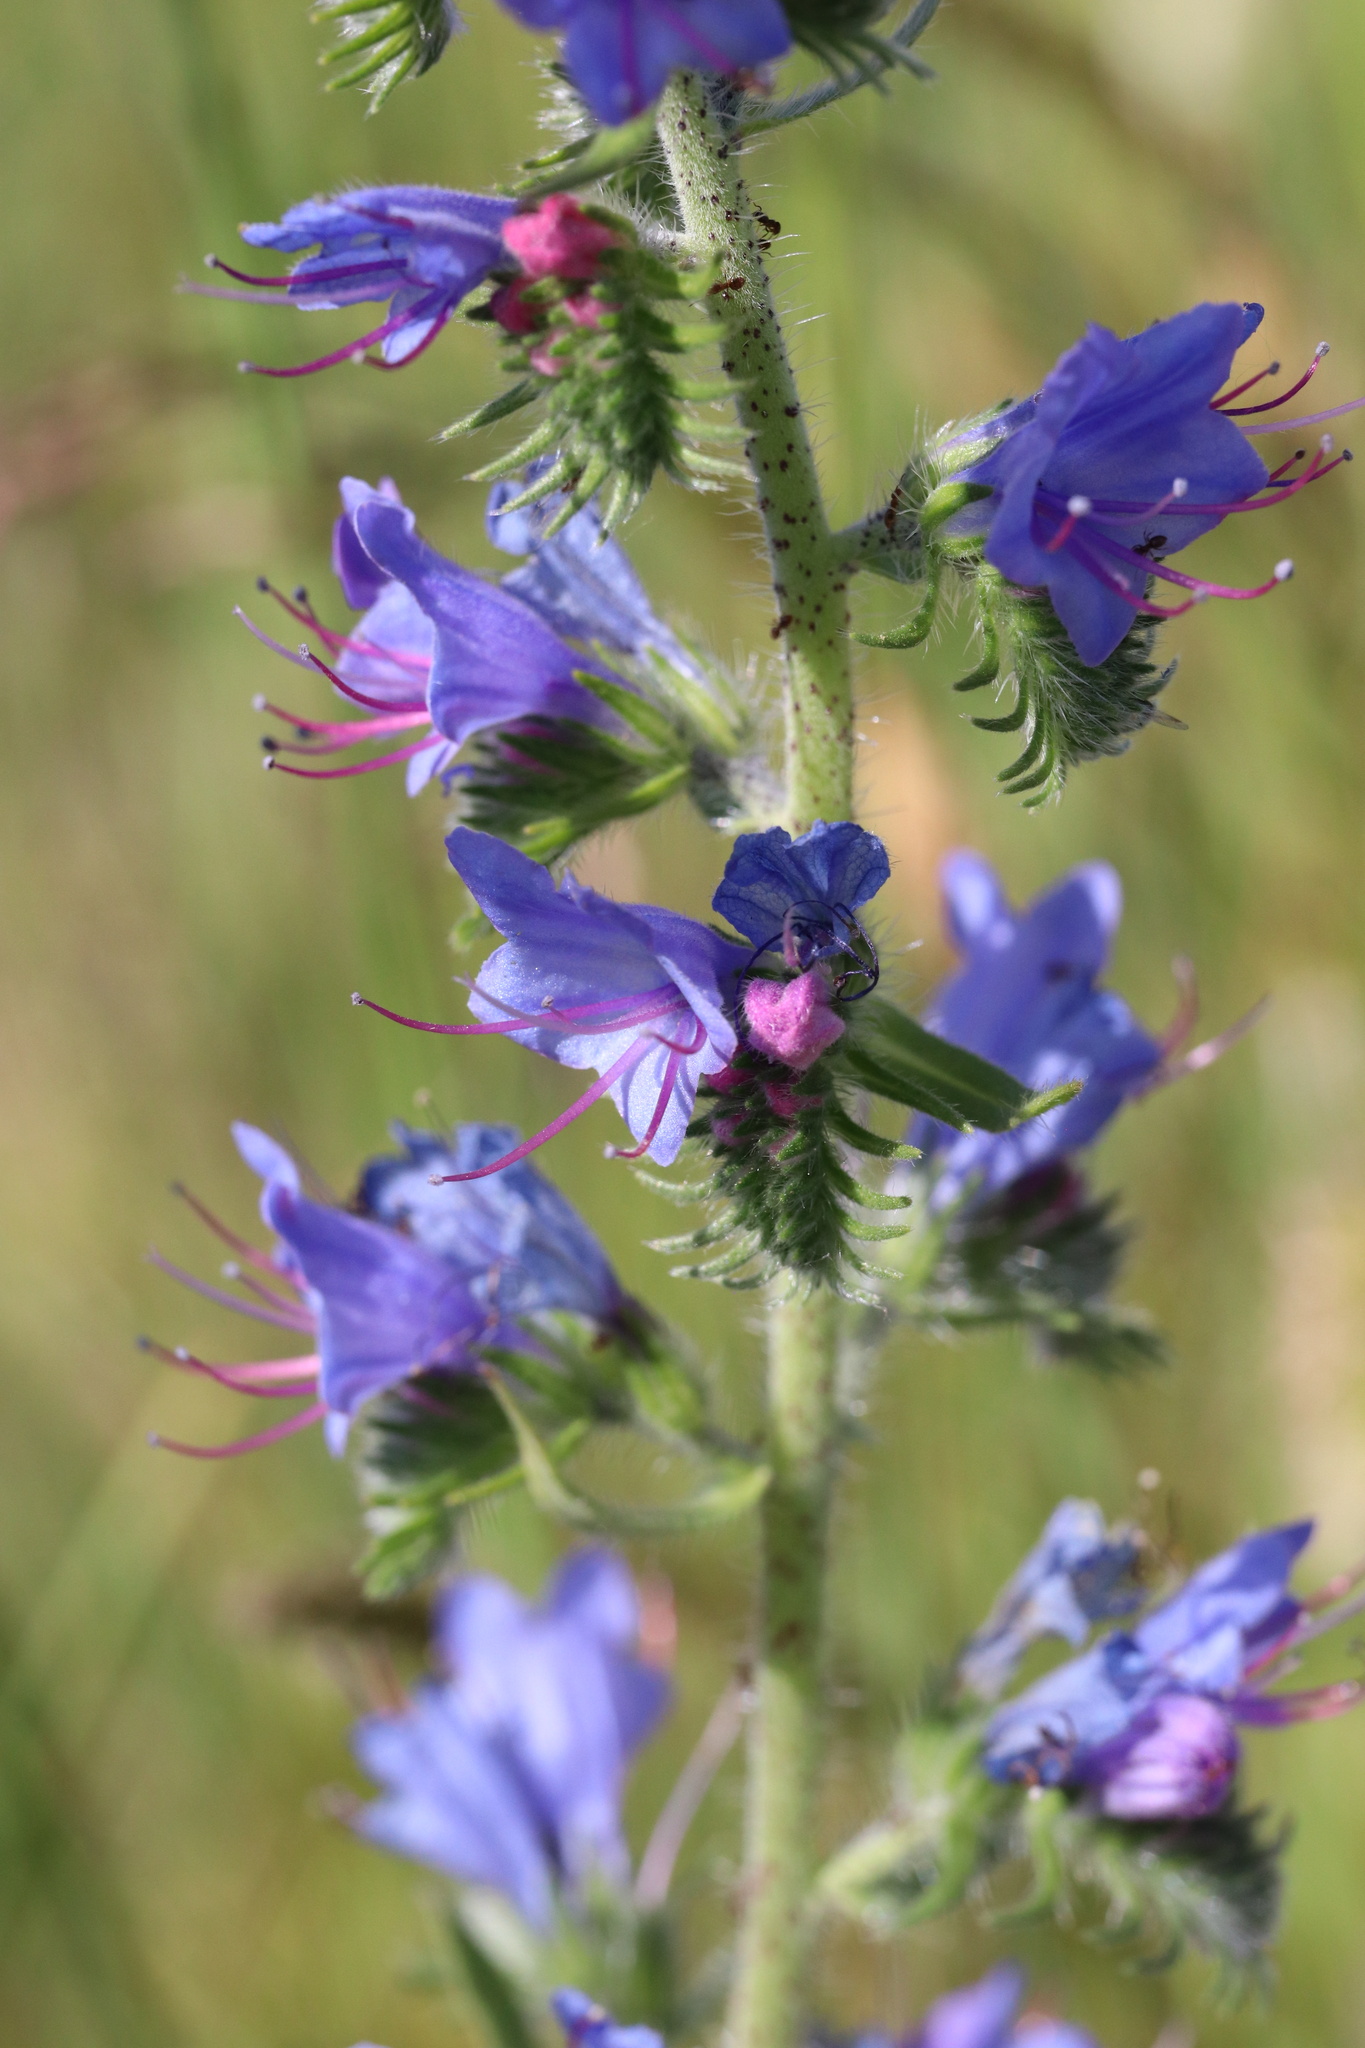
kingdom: Plantae
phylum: Tracheophyta
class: Magnoliopsida
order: Boraginales
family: Boraginaceae
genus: Echium
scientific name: Echium vulgare
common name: Common viper's bugloss
